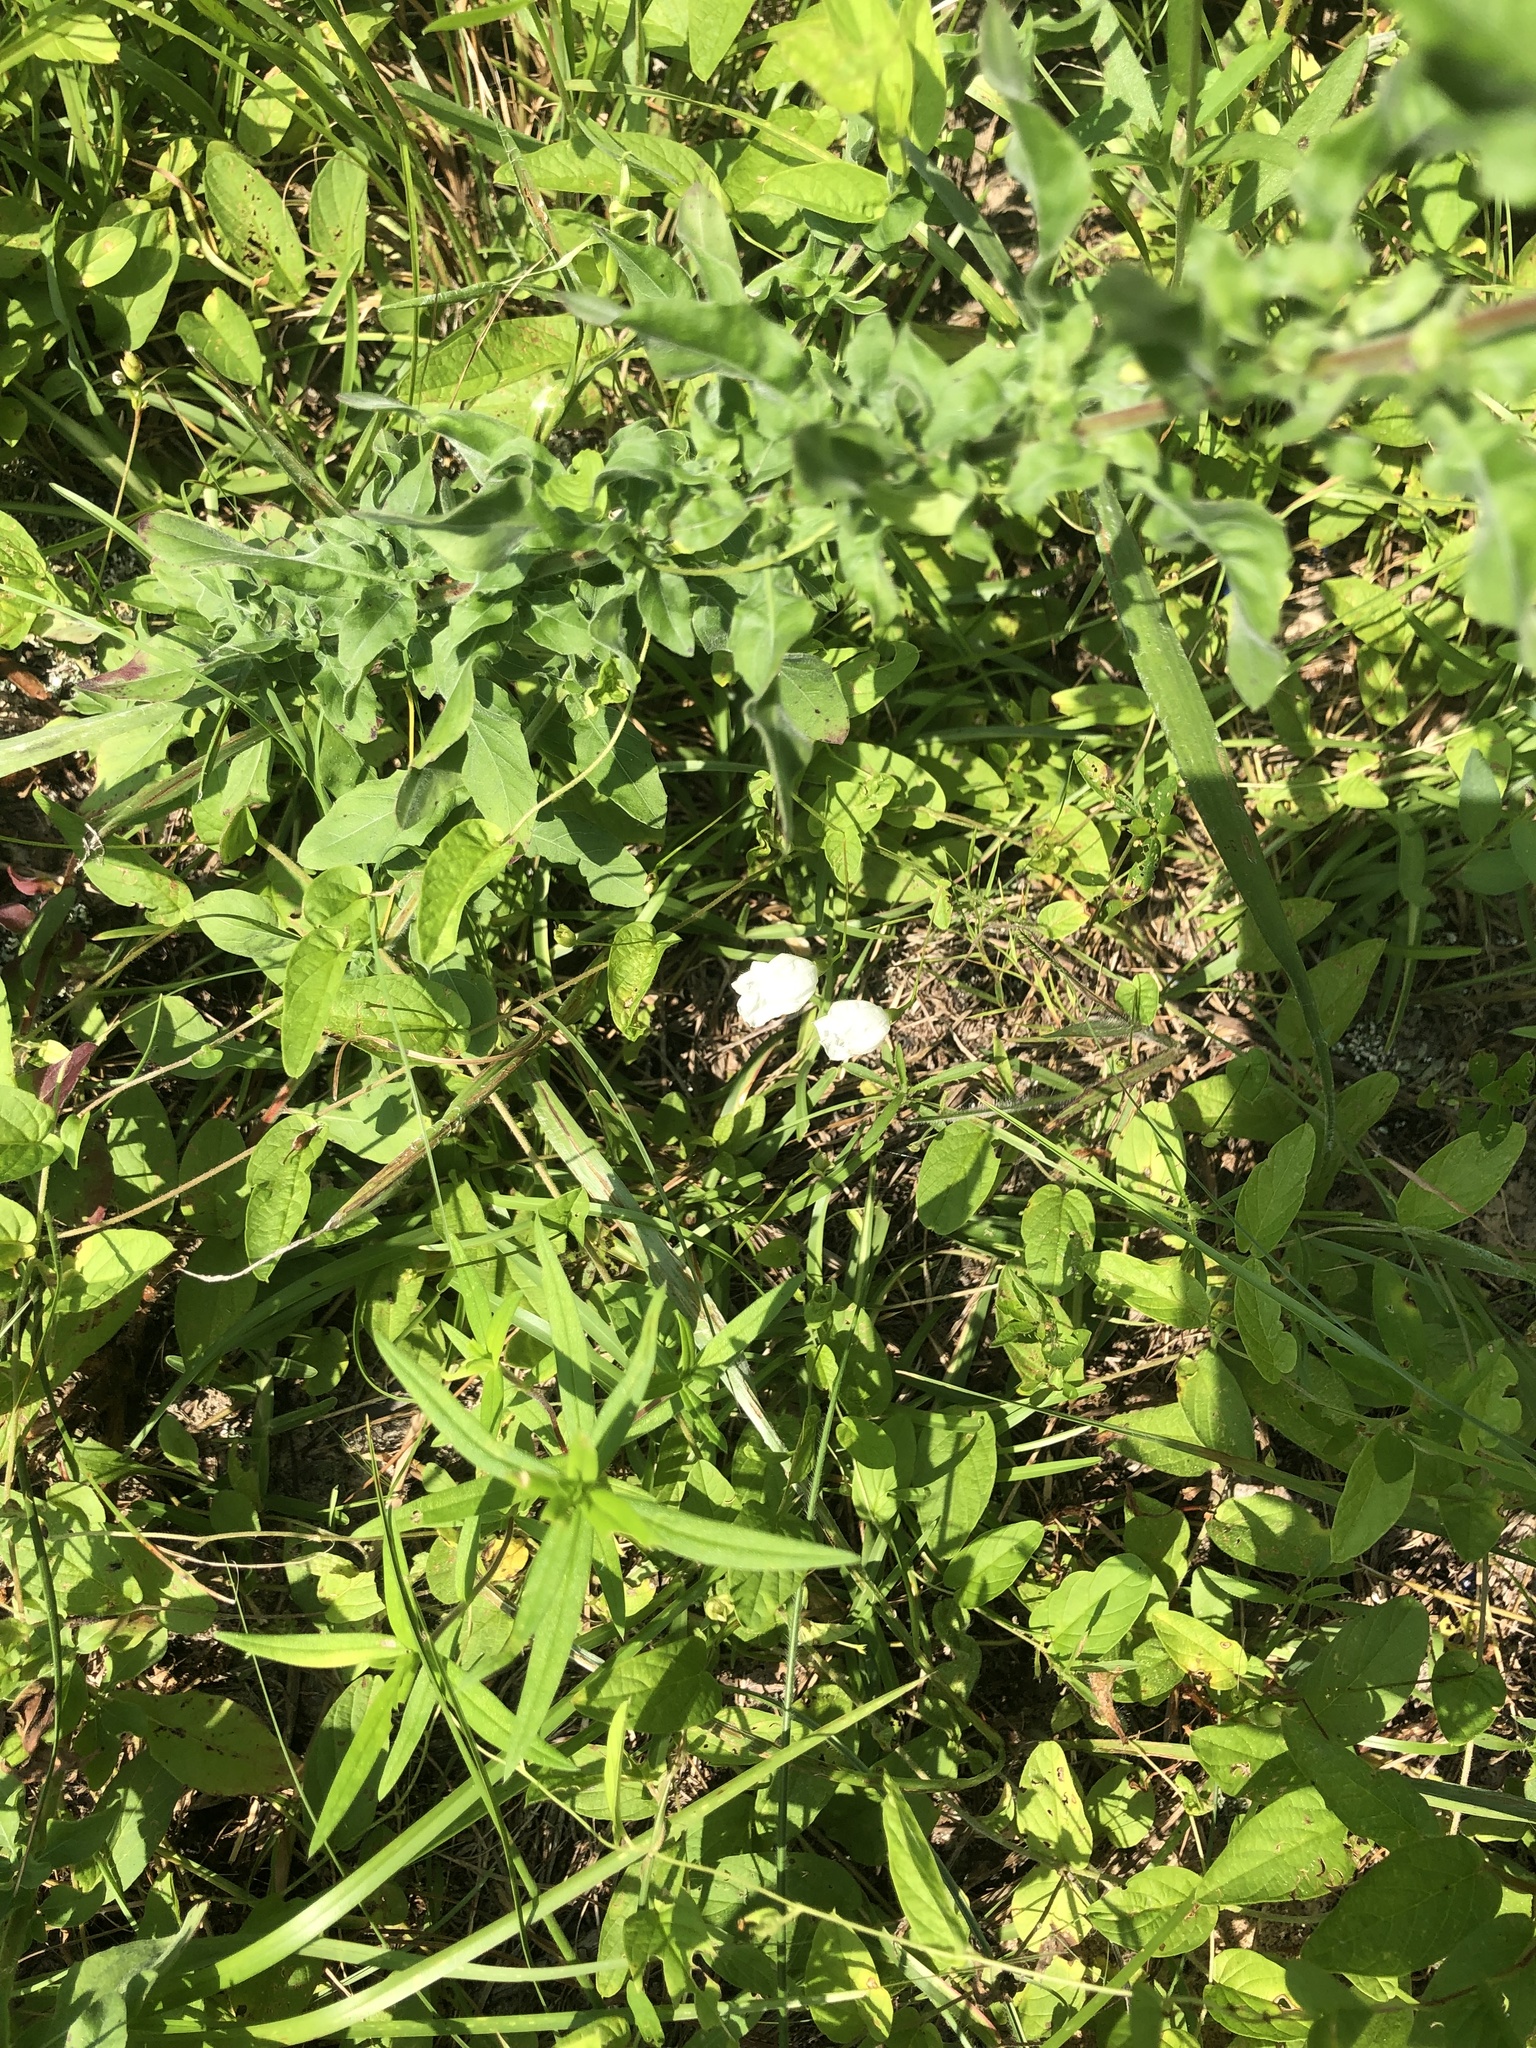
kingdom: Plantae
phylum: Tracheophyta
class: Magnoliopsida
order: Solanales
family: Convolvulaceae
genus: Stylisma
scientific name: Stylisma humistrata
